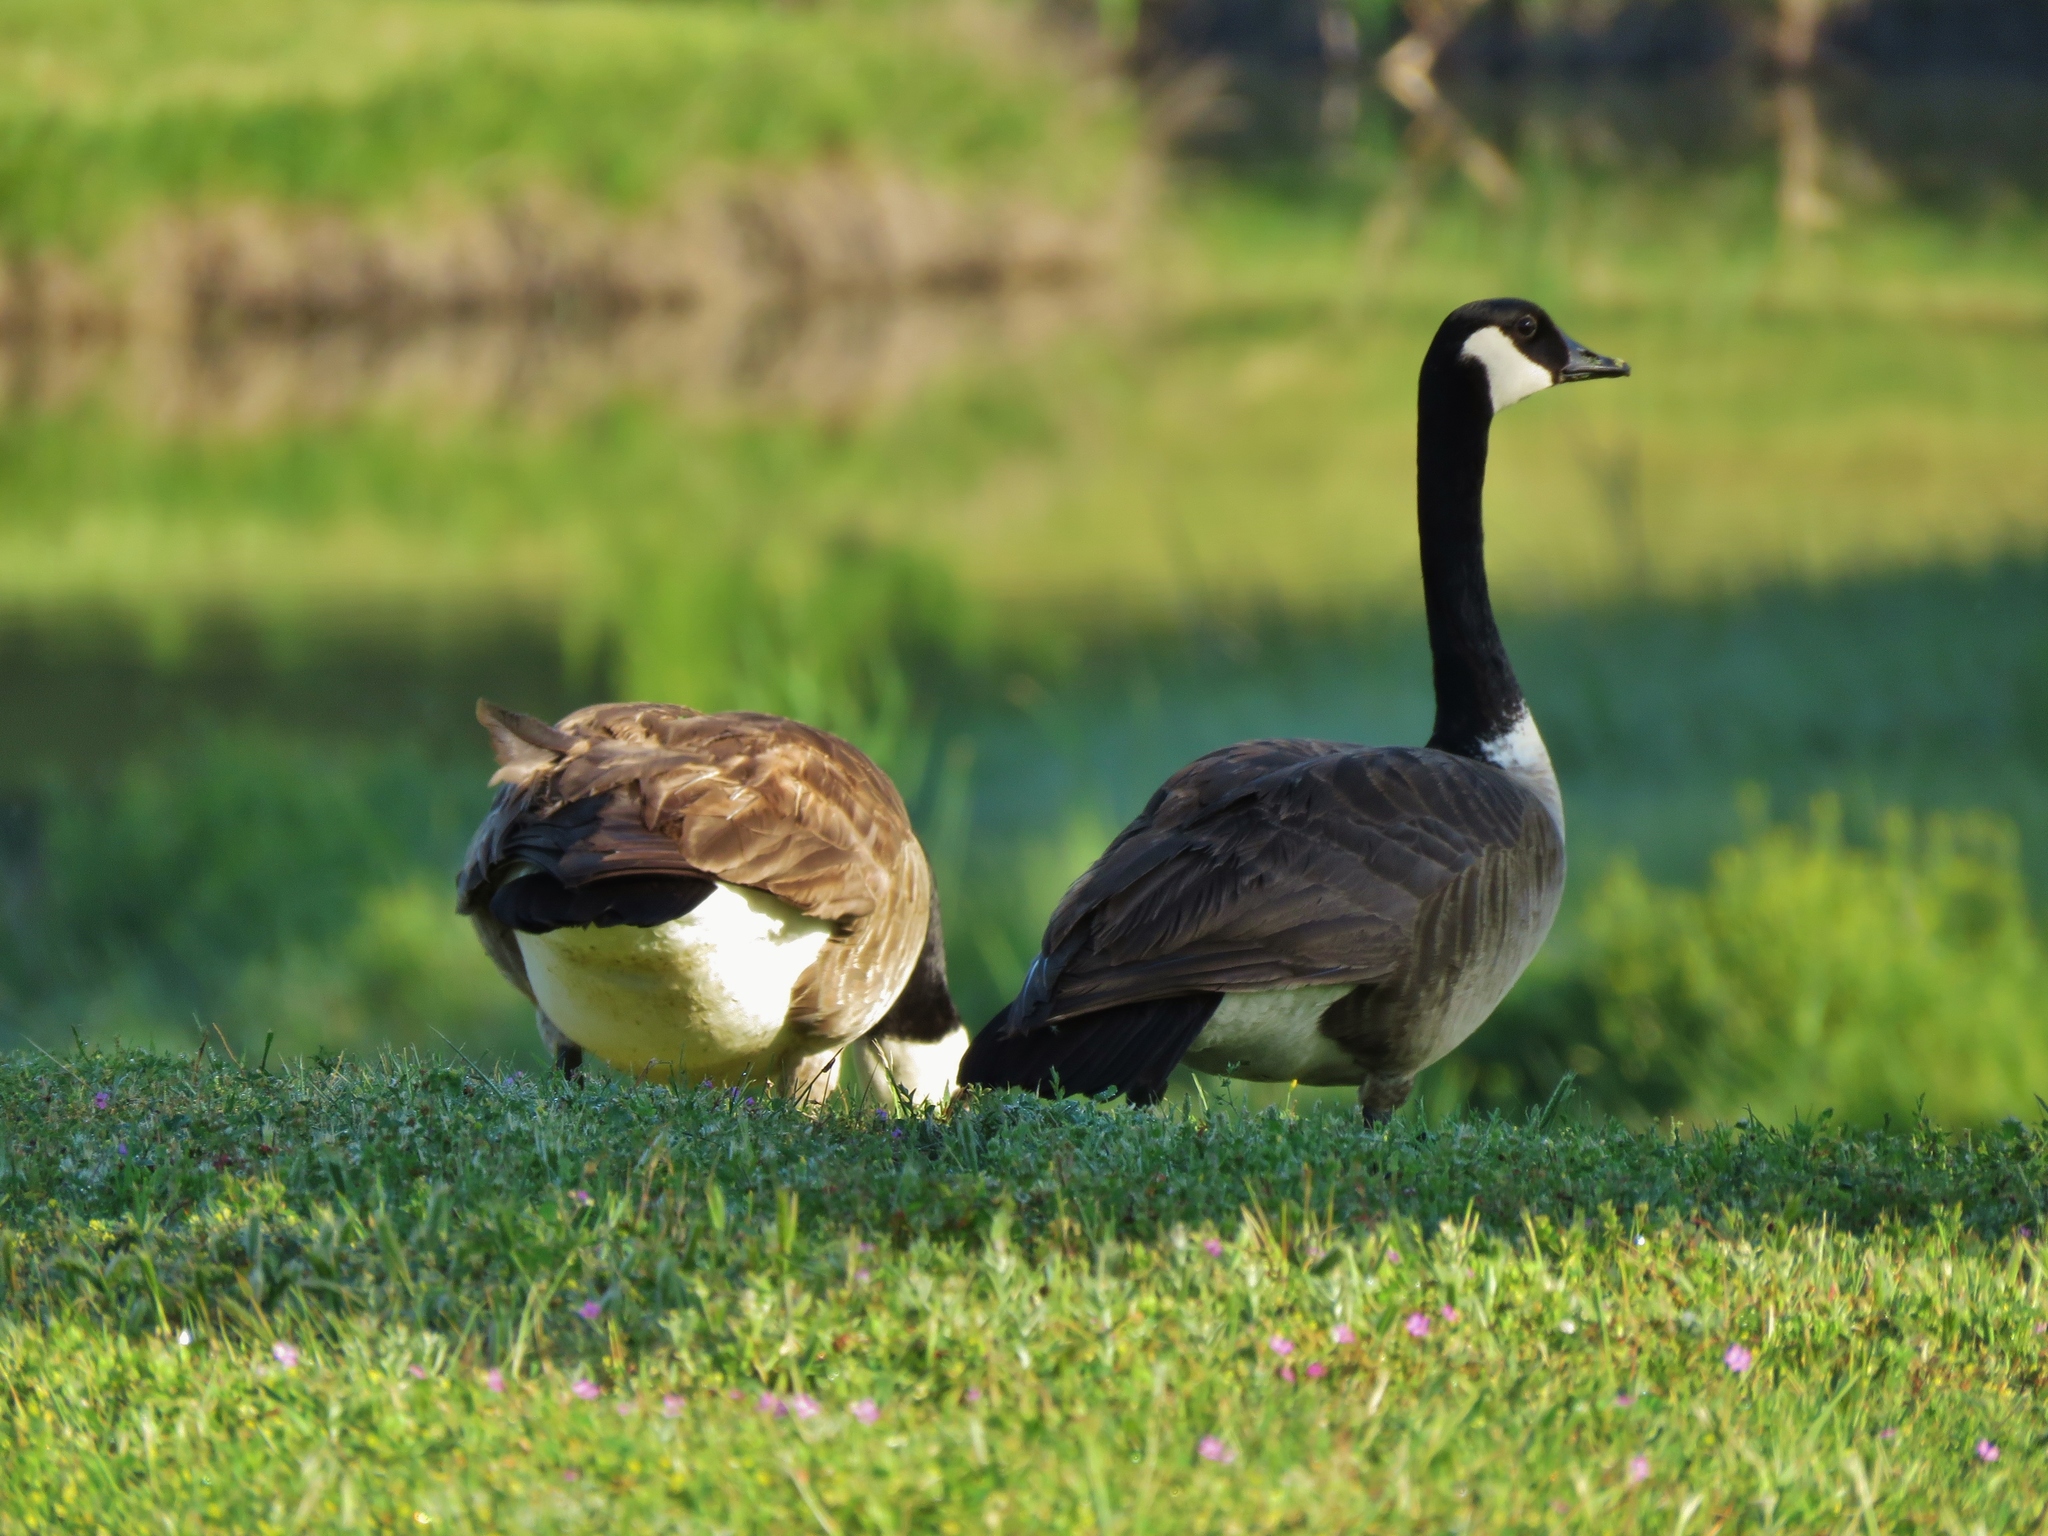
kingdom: Animalia
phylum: Chordata
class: Aves
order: Anseriformes
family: Anatidae
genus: Branta
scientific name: Branta canadensis
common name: Canada goose
